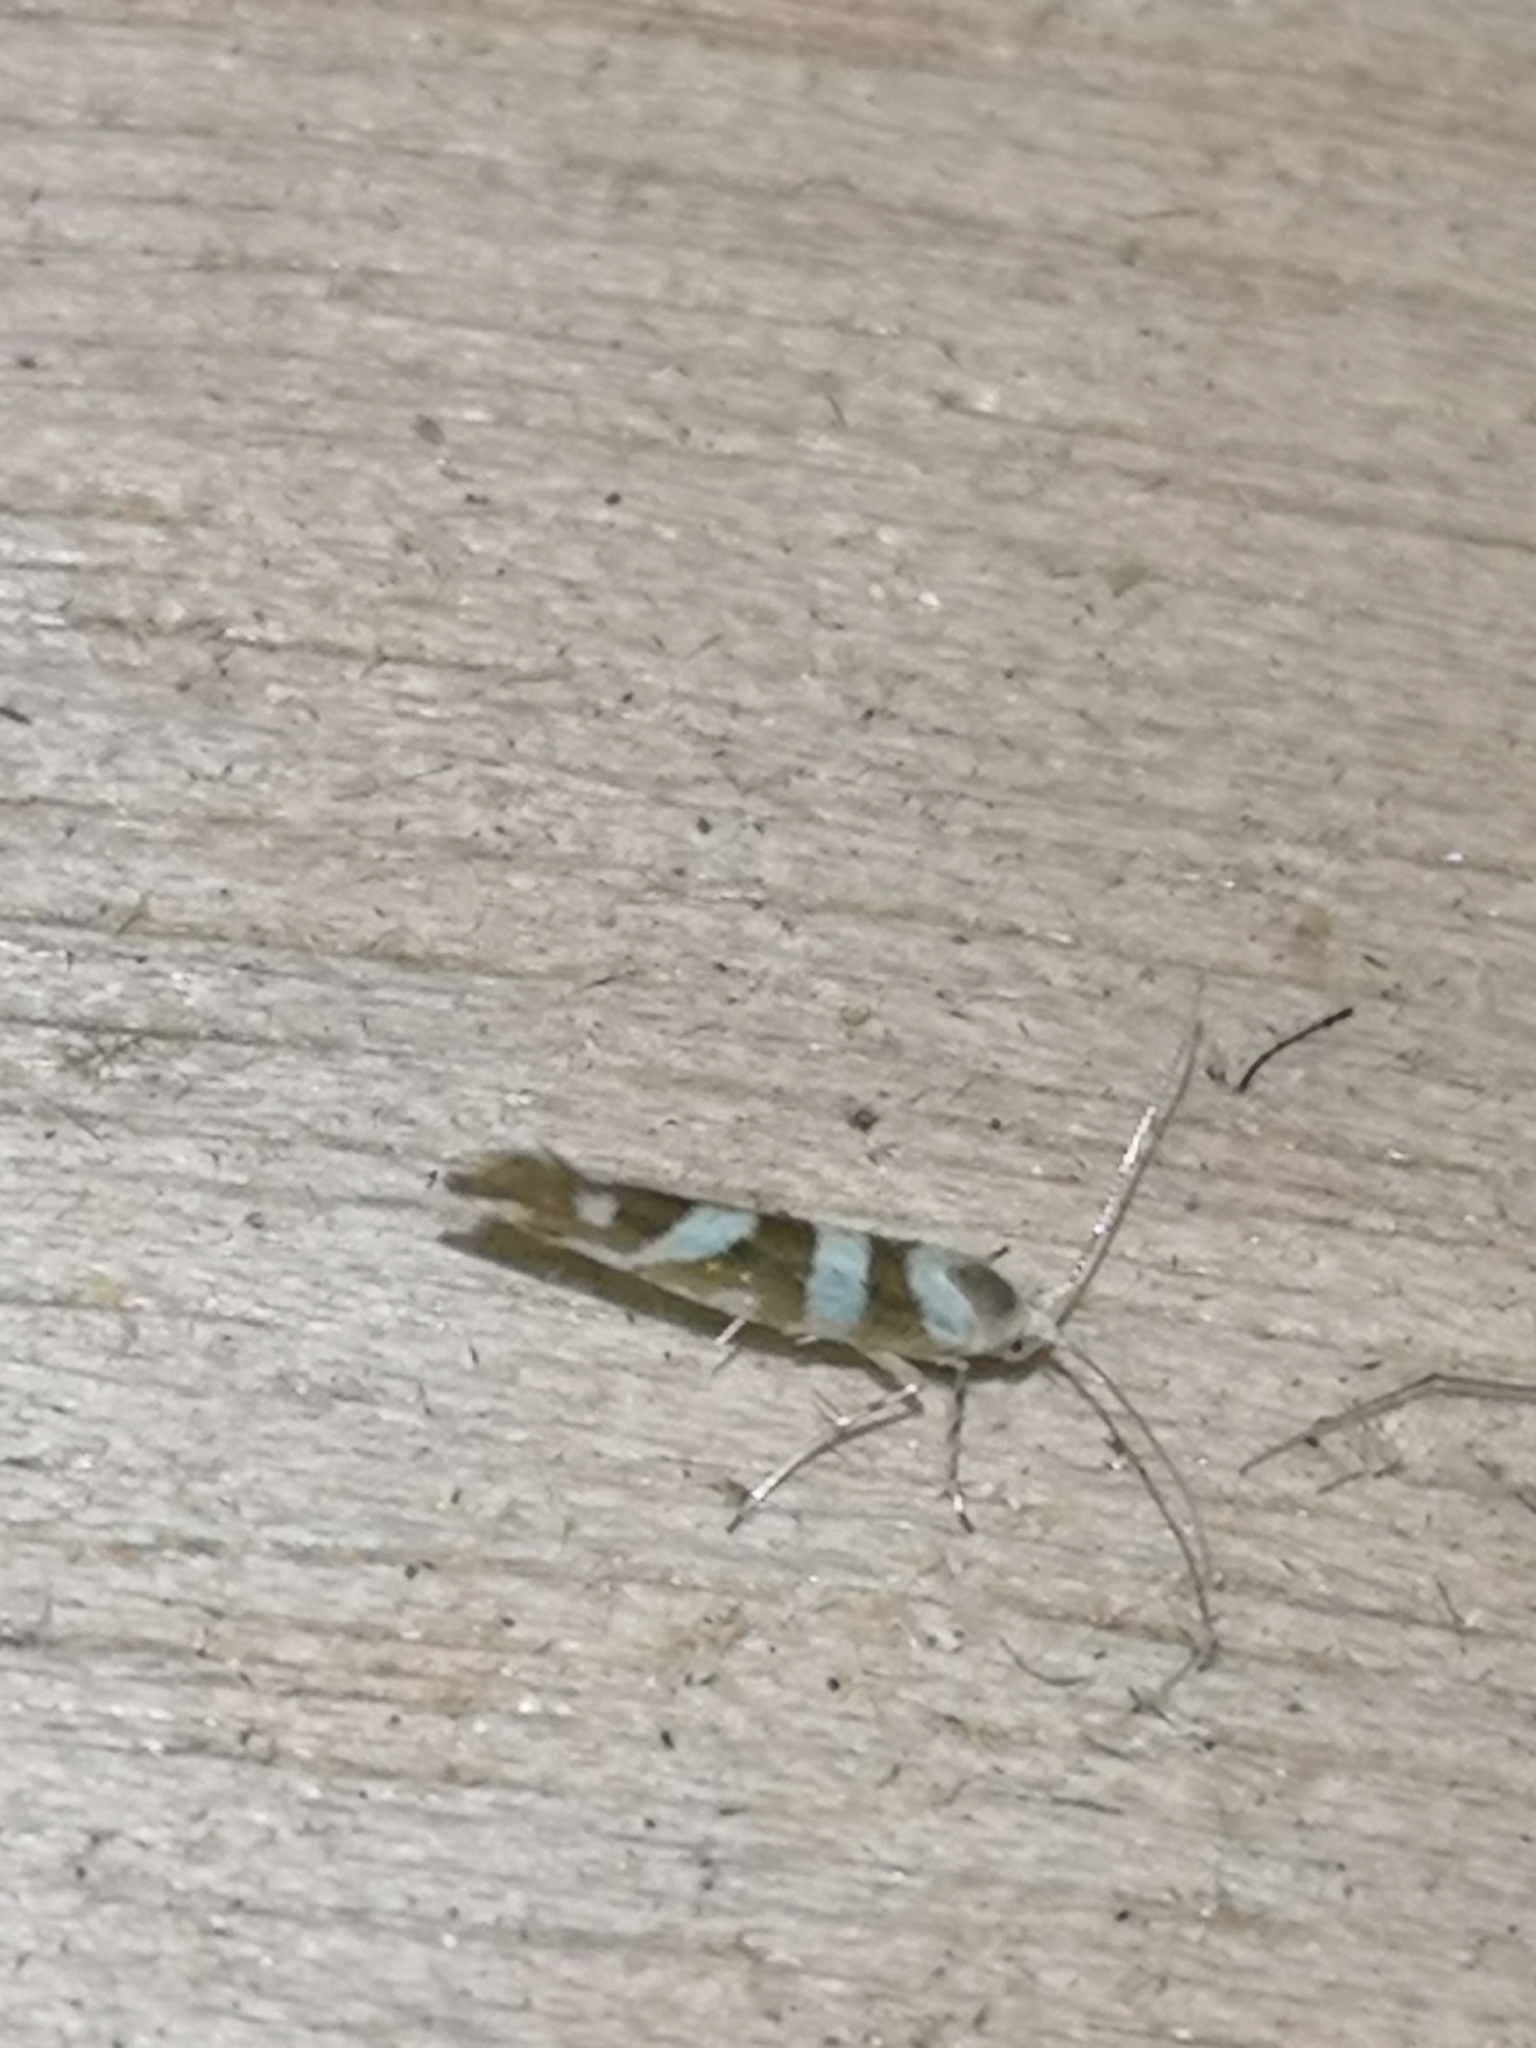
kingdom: Animalia
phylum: Arthropoda
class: Insecta
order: Lepidoptera
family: Argyresthiidae
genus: Argyresthia
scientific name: Argyresthia goedartella
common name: Golden argent
